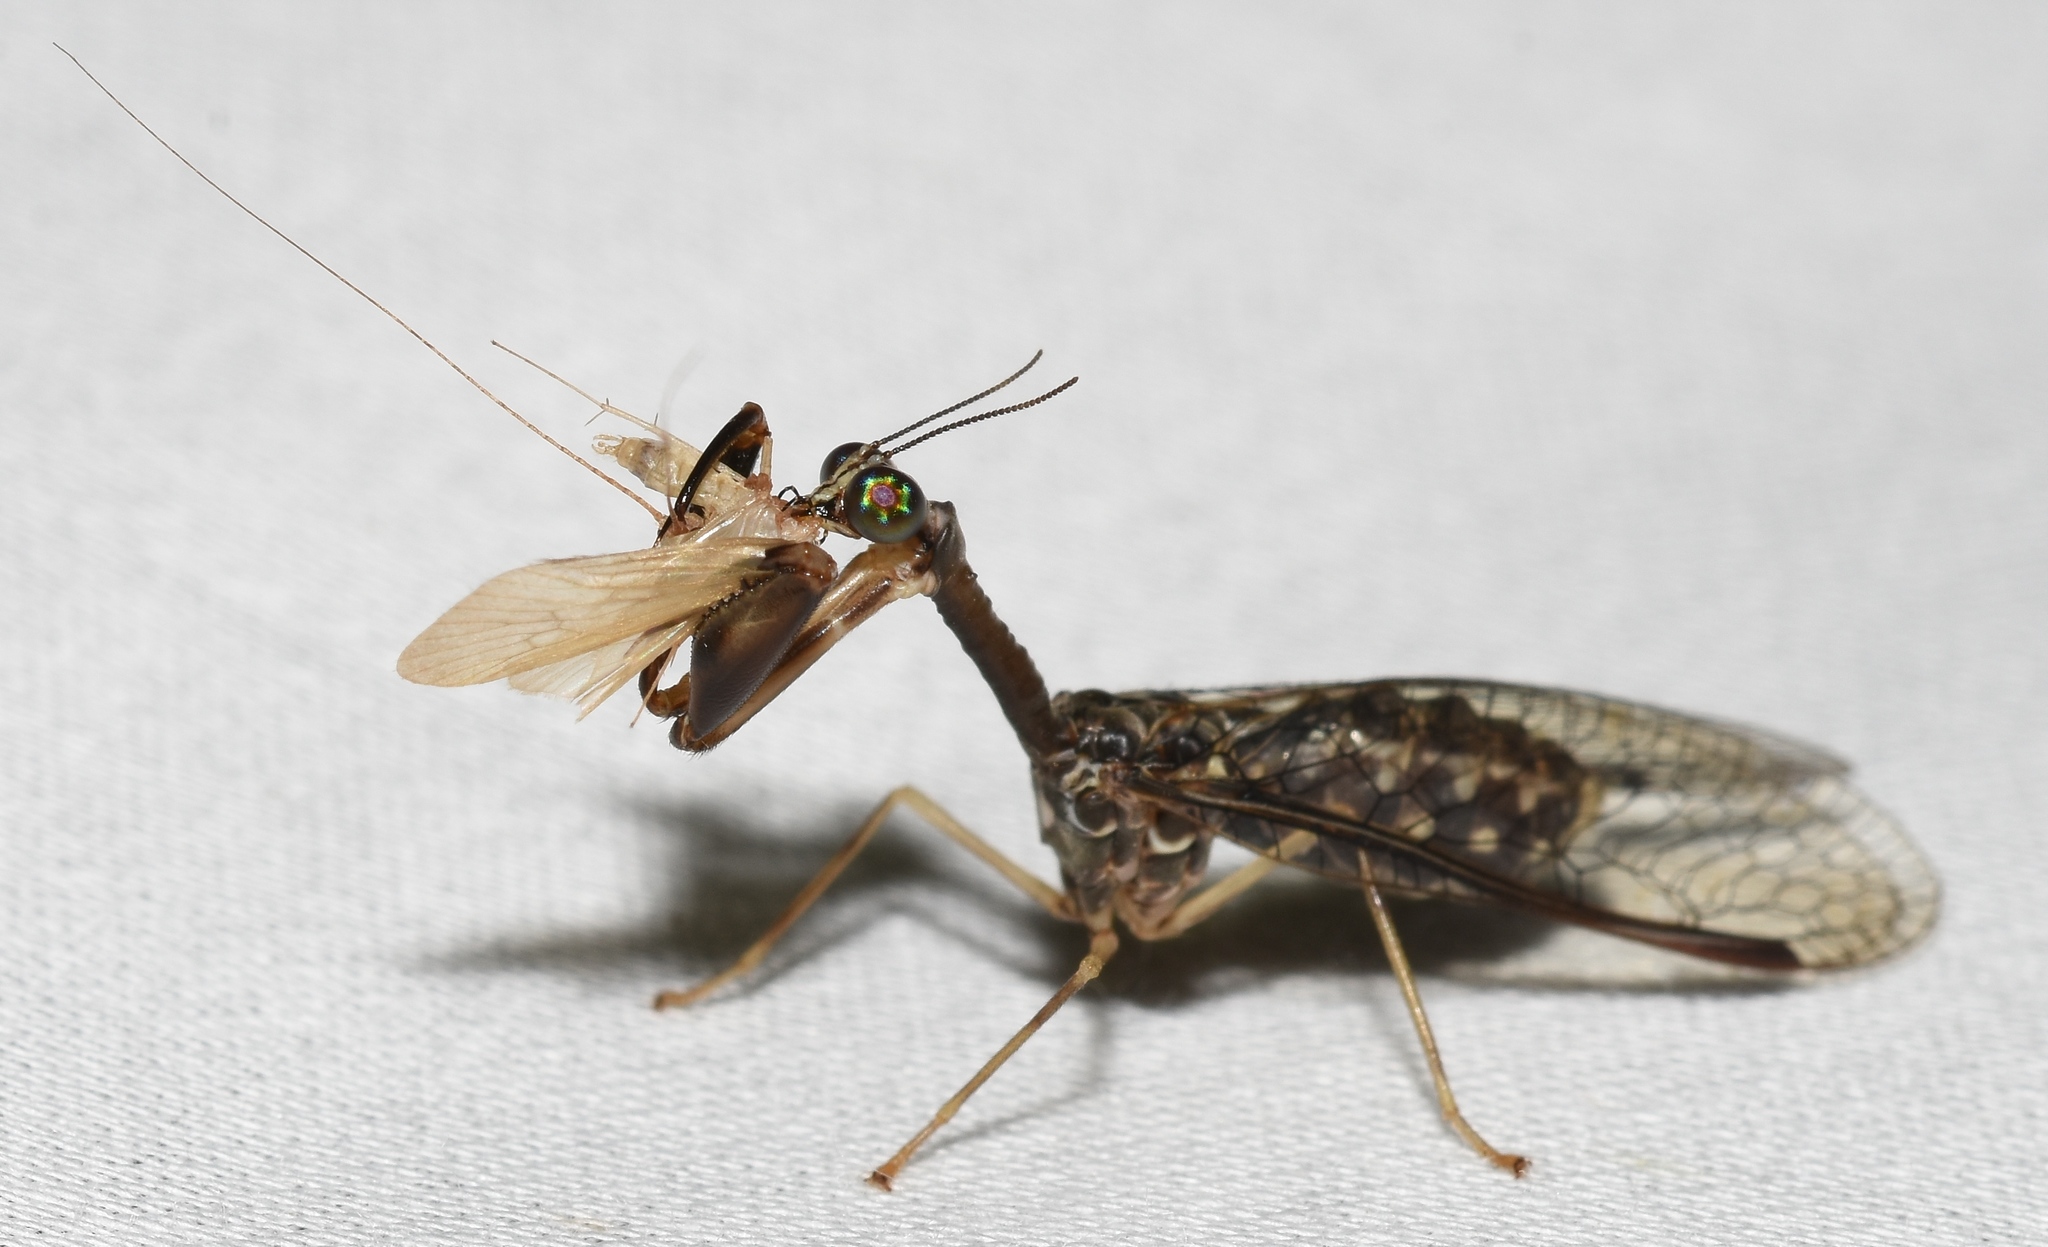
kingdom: Animalia
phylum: Arthropoda
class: Insecta
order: Neuroptera
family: Mantispidae
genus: Dicromantispa
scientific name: Dicromantispa sayi
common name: Say's mantidfly
